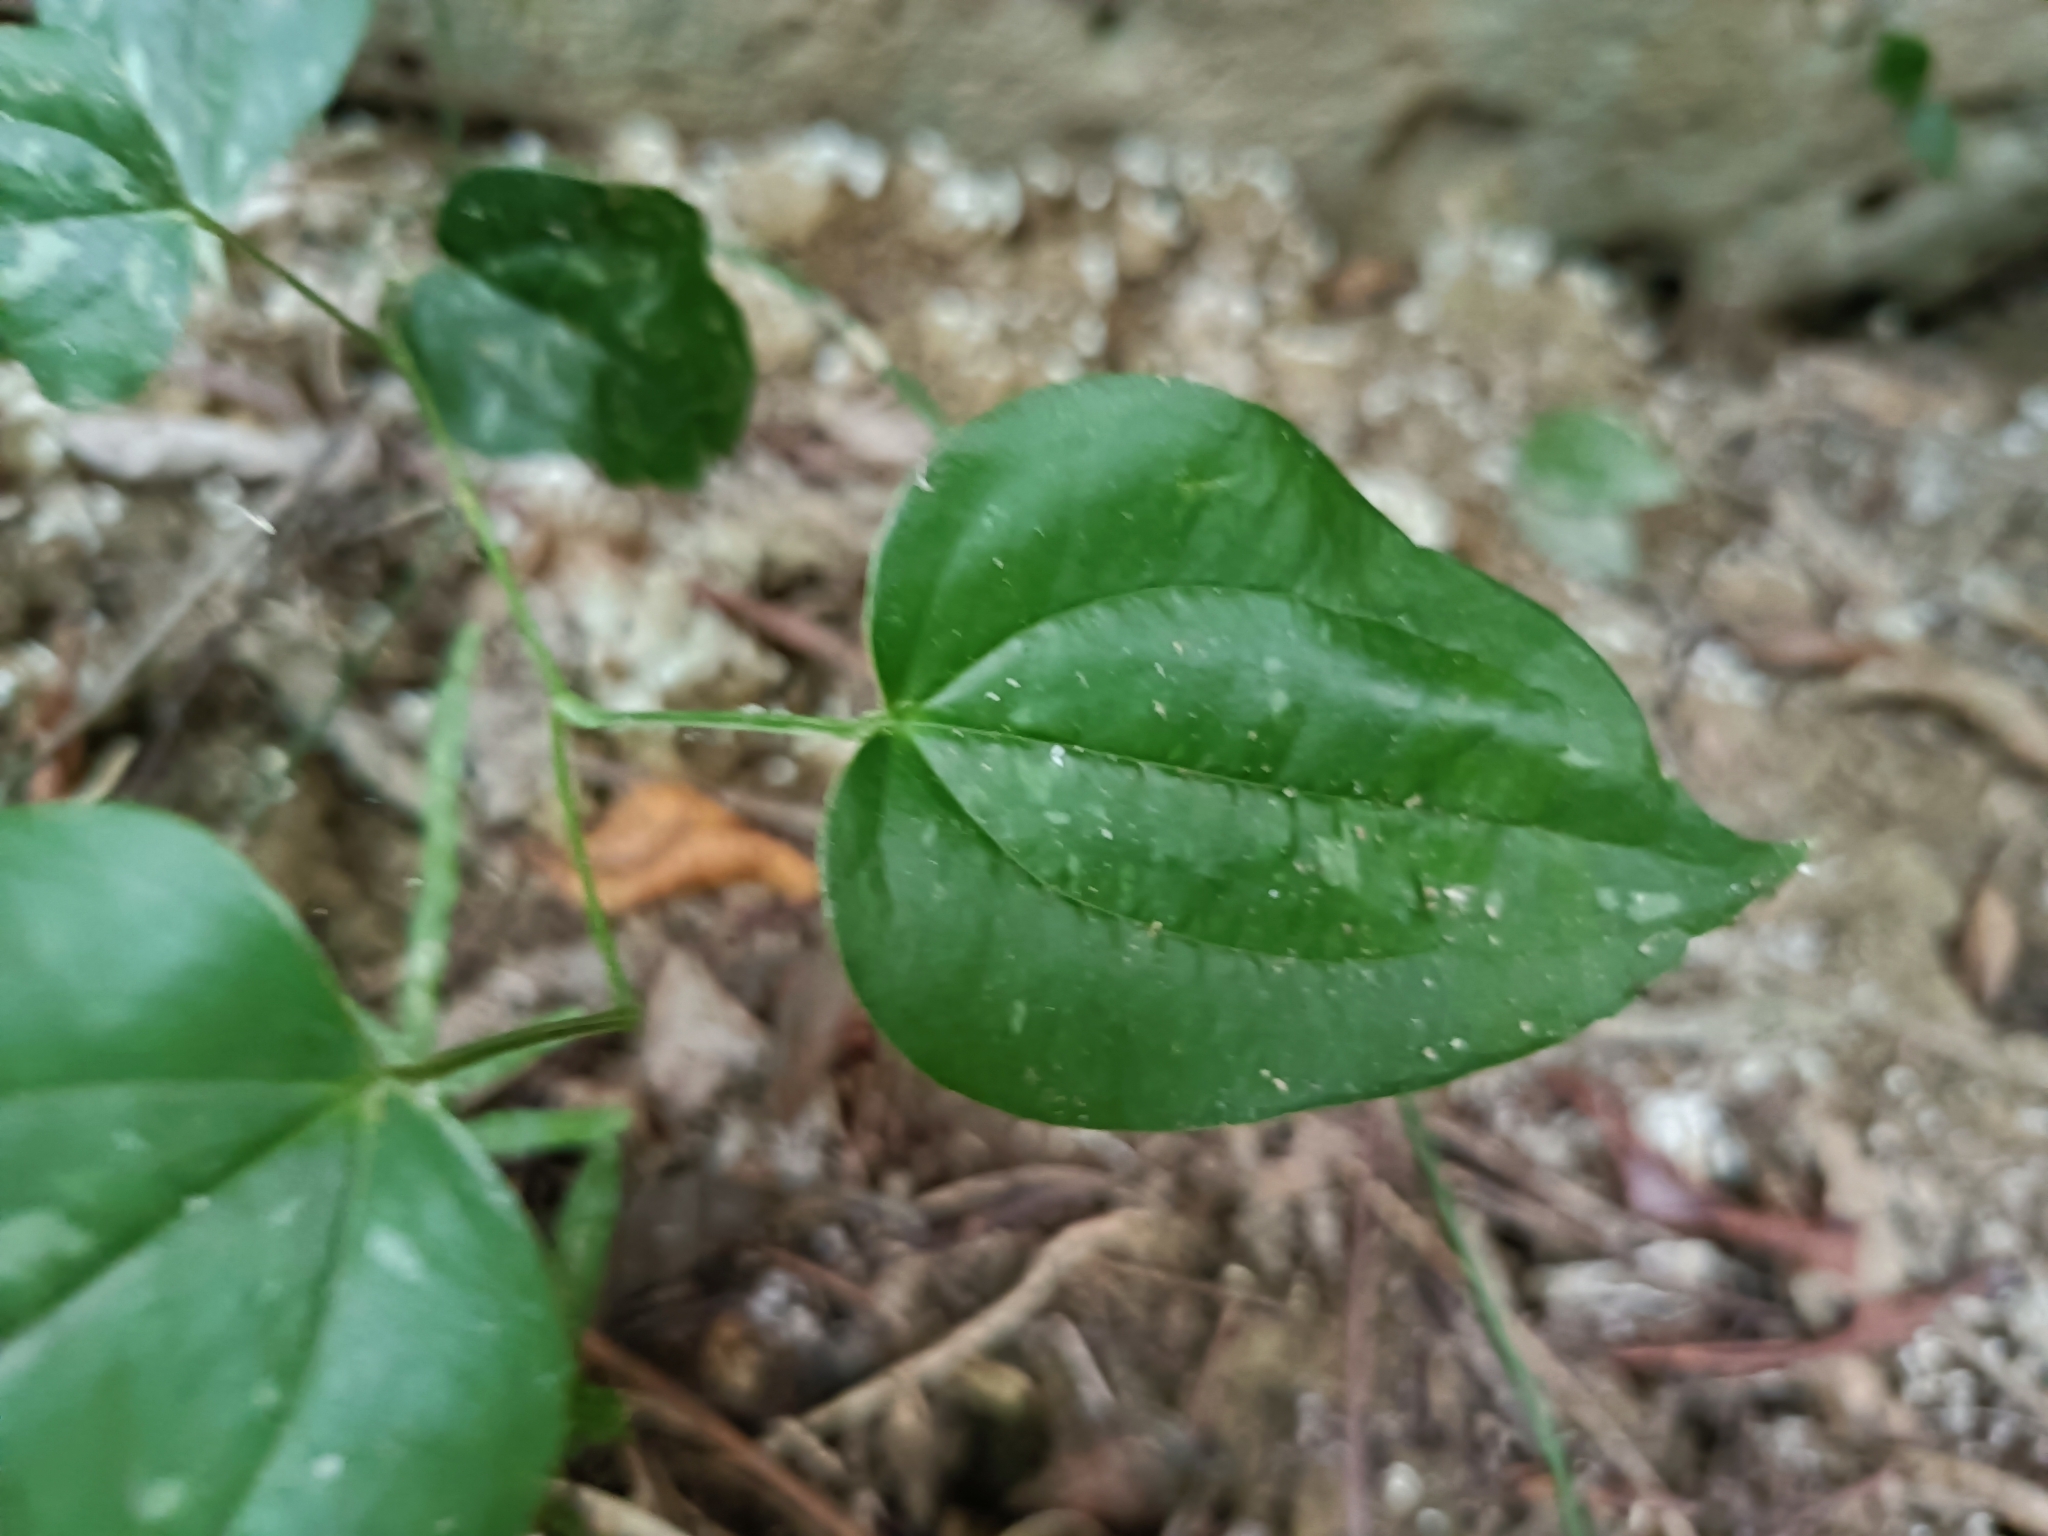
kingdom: Plantae
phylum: Tracheophyta
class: Liliopsida
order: Liliales
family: Smilacaceae
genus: Smilax
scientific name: Smilax china
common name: Chinaroot
